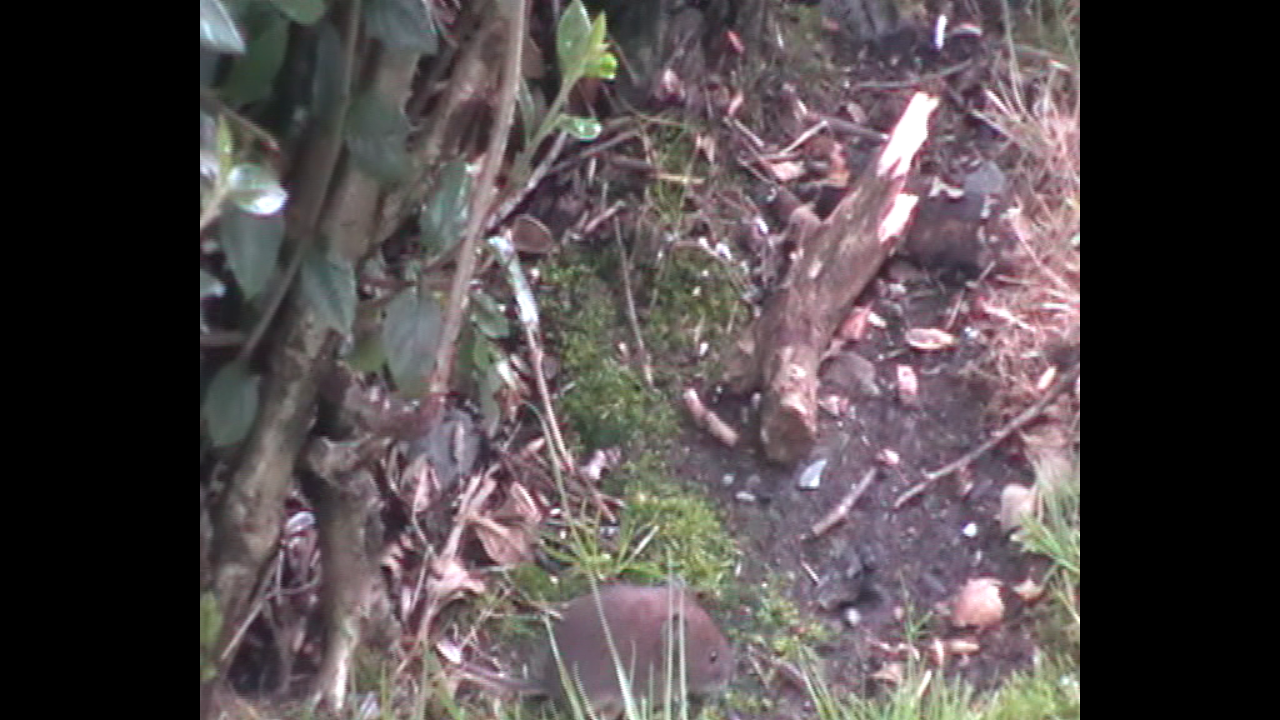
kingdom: Animalia
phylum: Chordata
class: Mammalia
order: Rodentia
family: Cricetidae
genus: Myodes
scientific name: Myodes glareolus
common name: Bank vole
